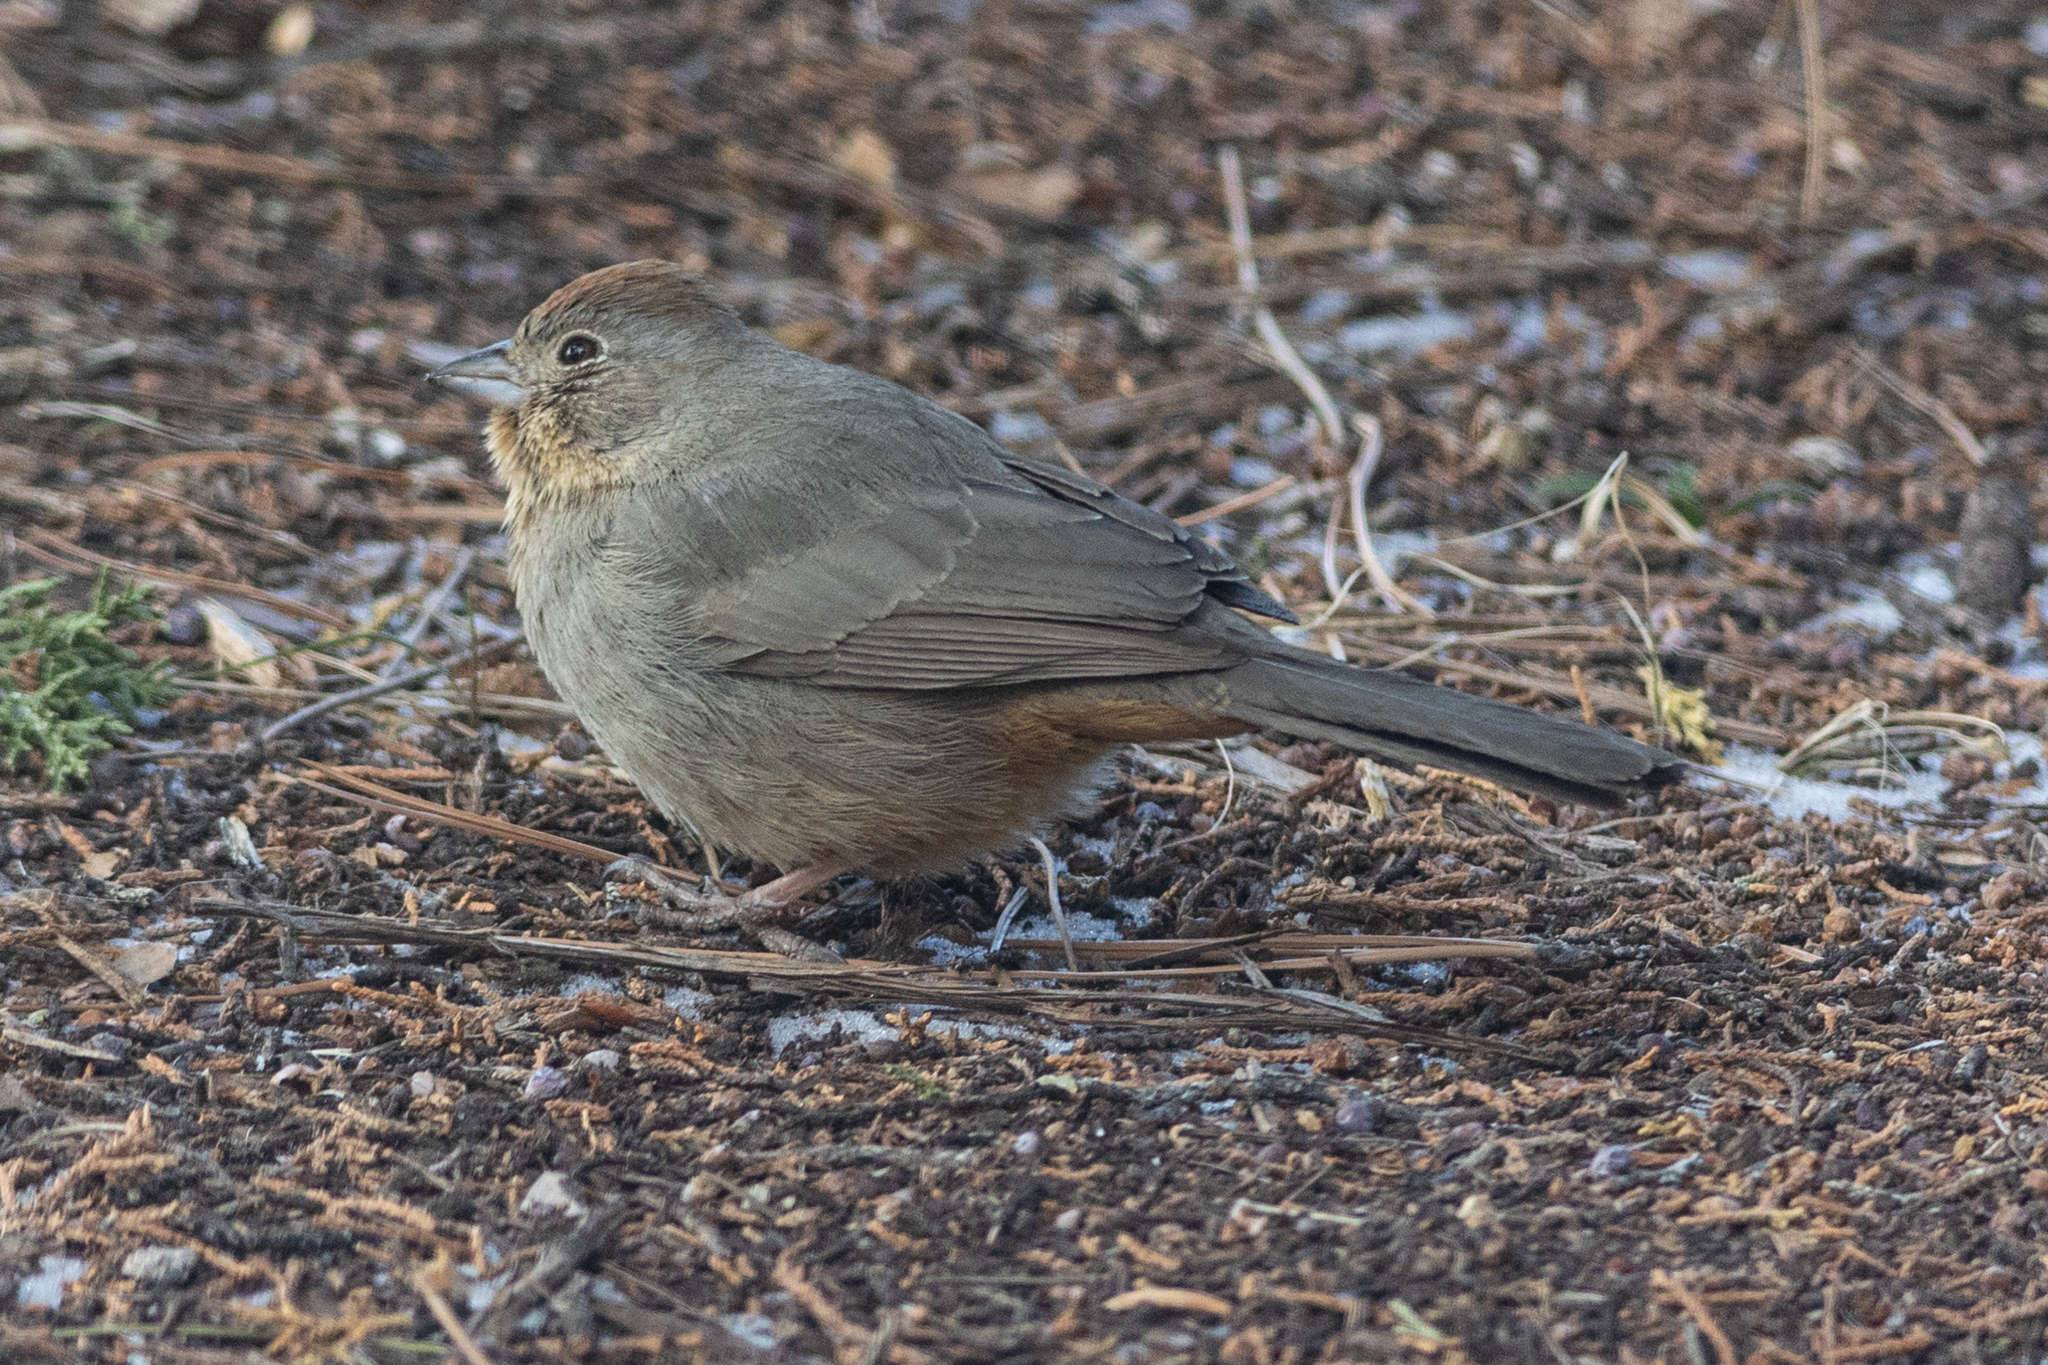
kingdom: Animalia
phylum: Chordata
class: Aves
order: Passeriformes
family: Passerellidae
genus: Melozone
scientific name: Melozone fusca
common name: Canyon towhee
